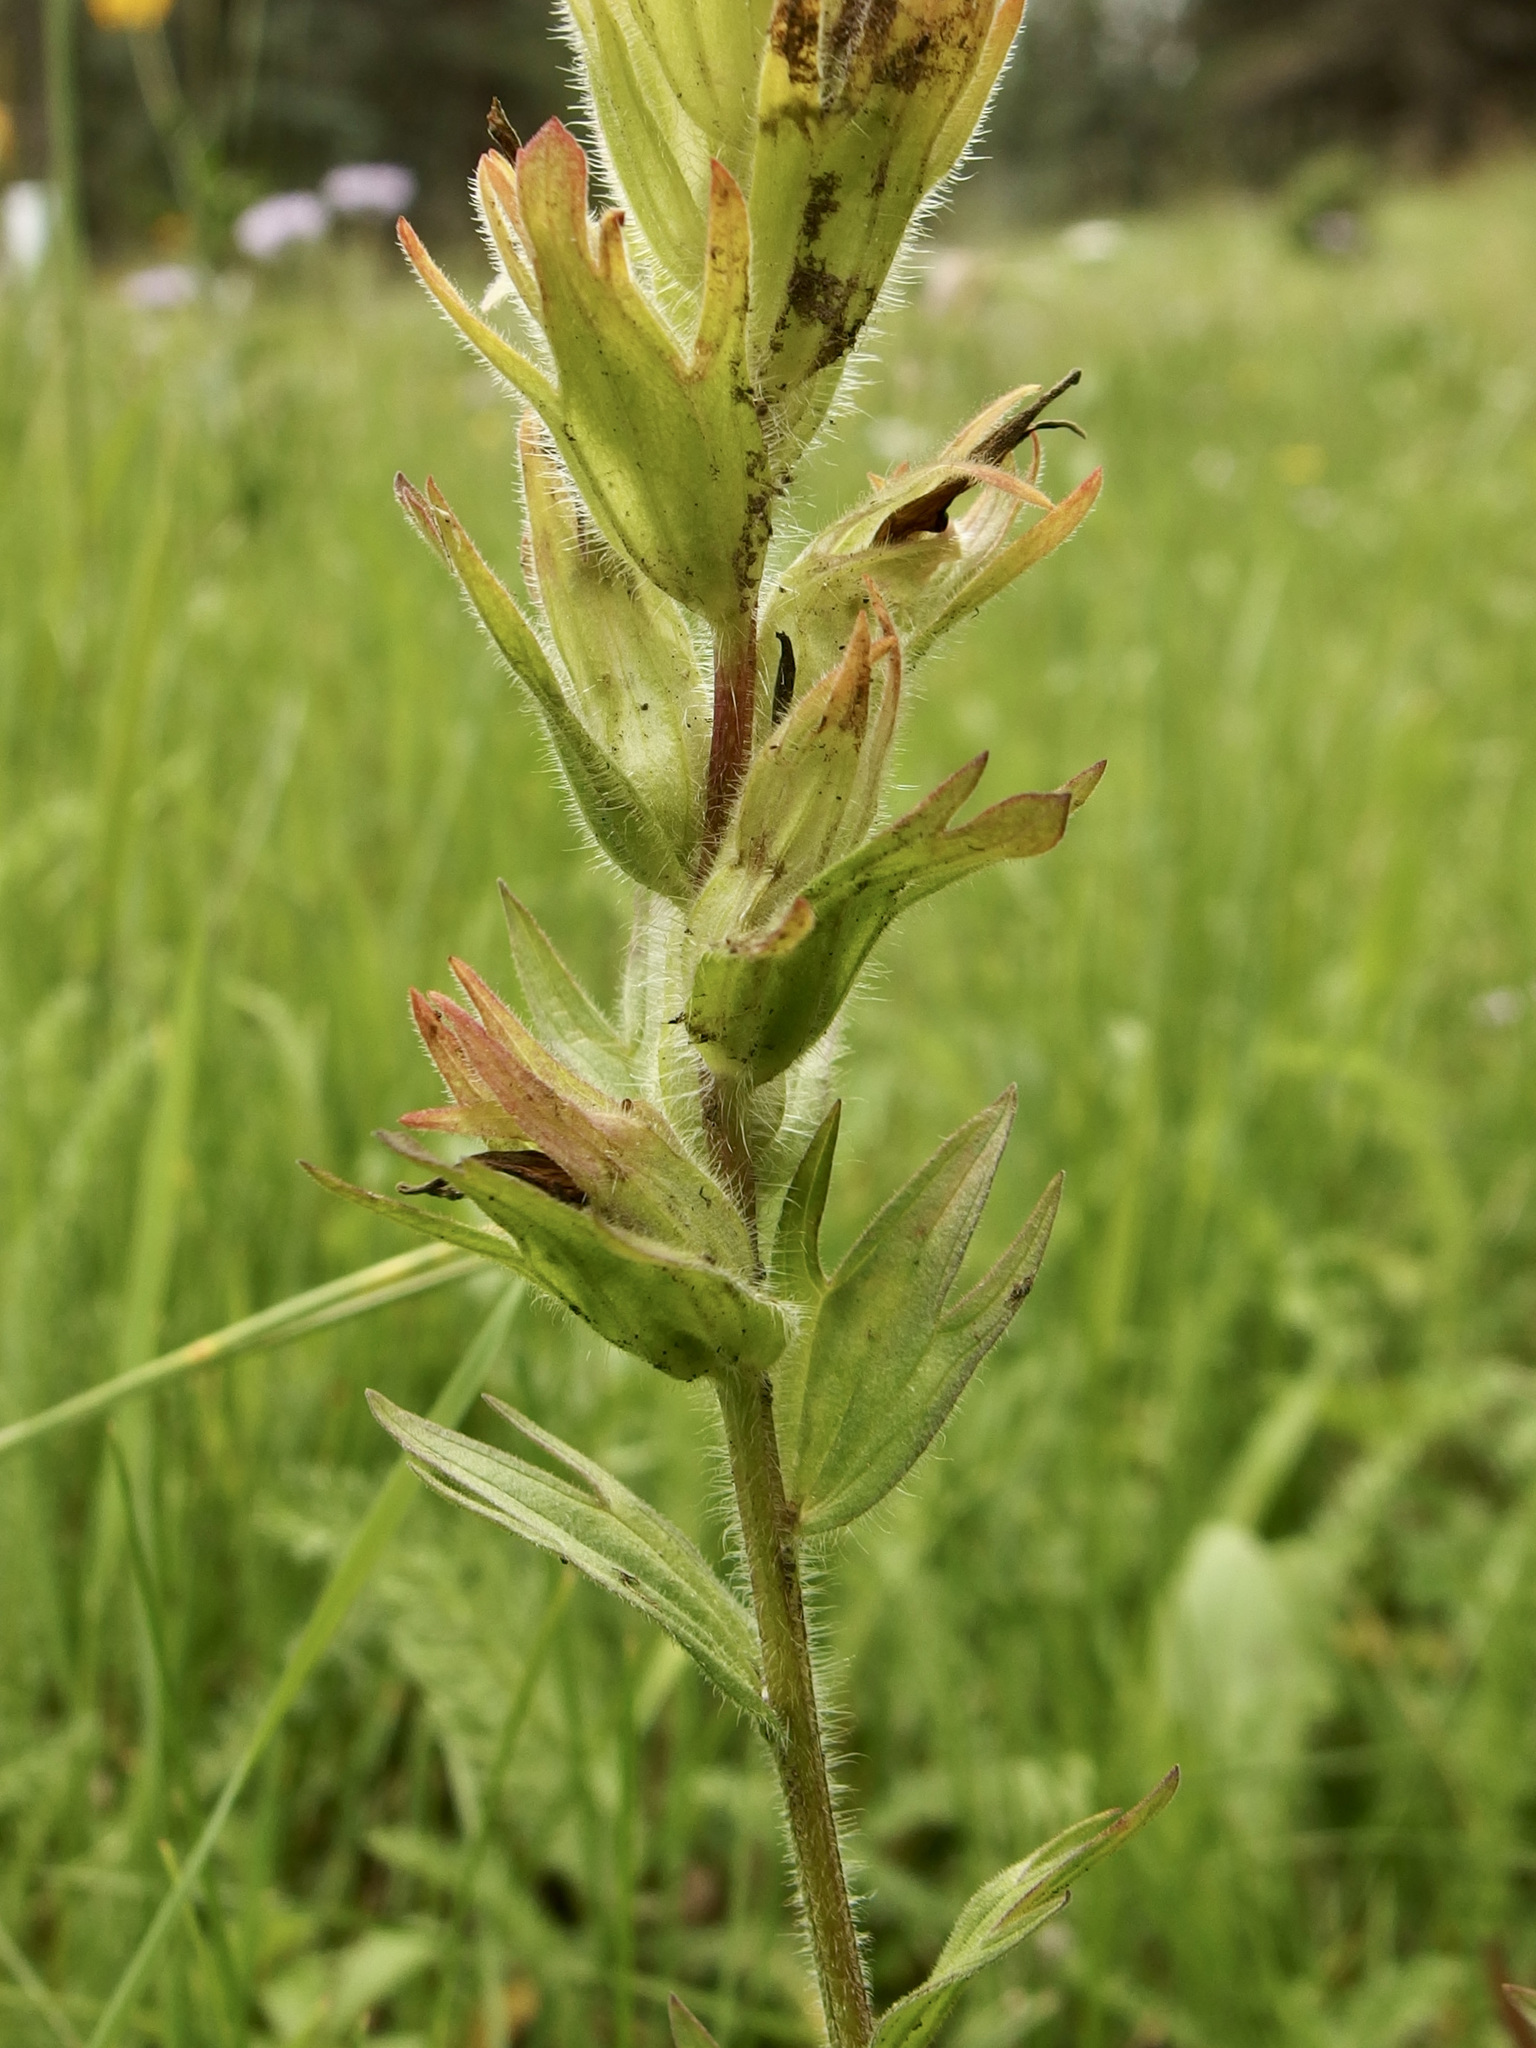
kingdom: Plantae
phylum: Tracheophyta
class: Magnoliopsida
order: Lamiales
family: Orobanchaceae
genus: Castilleja
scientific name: Castilleja mogollonica
